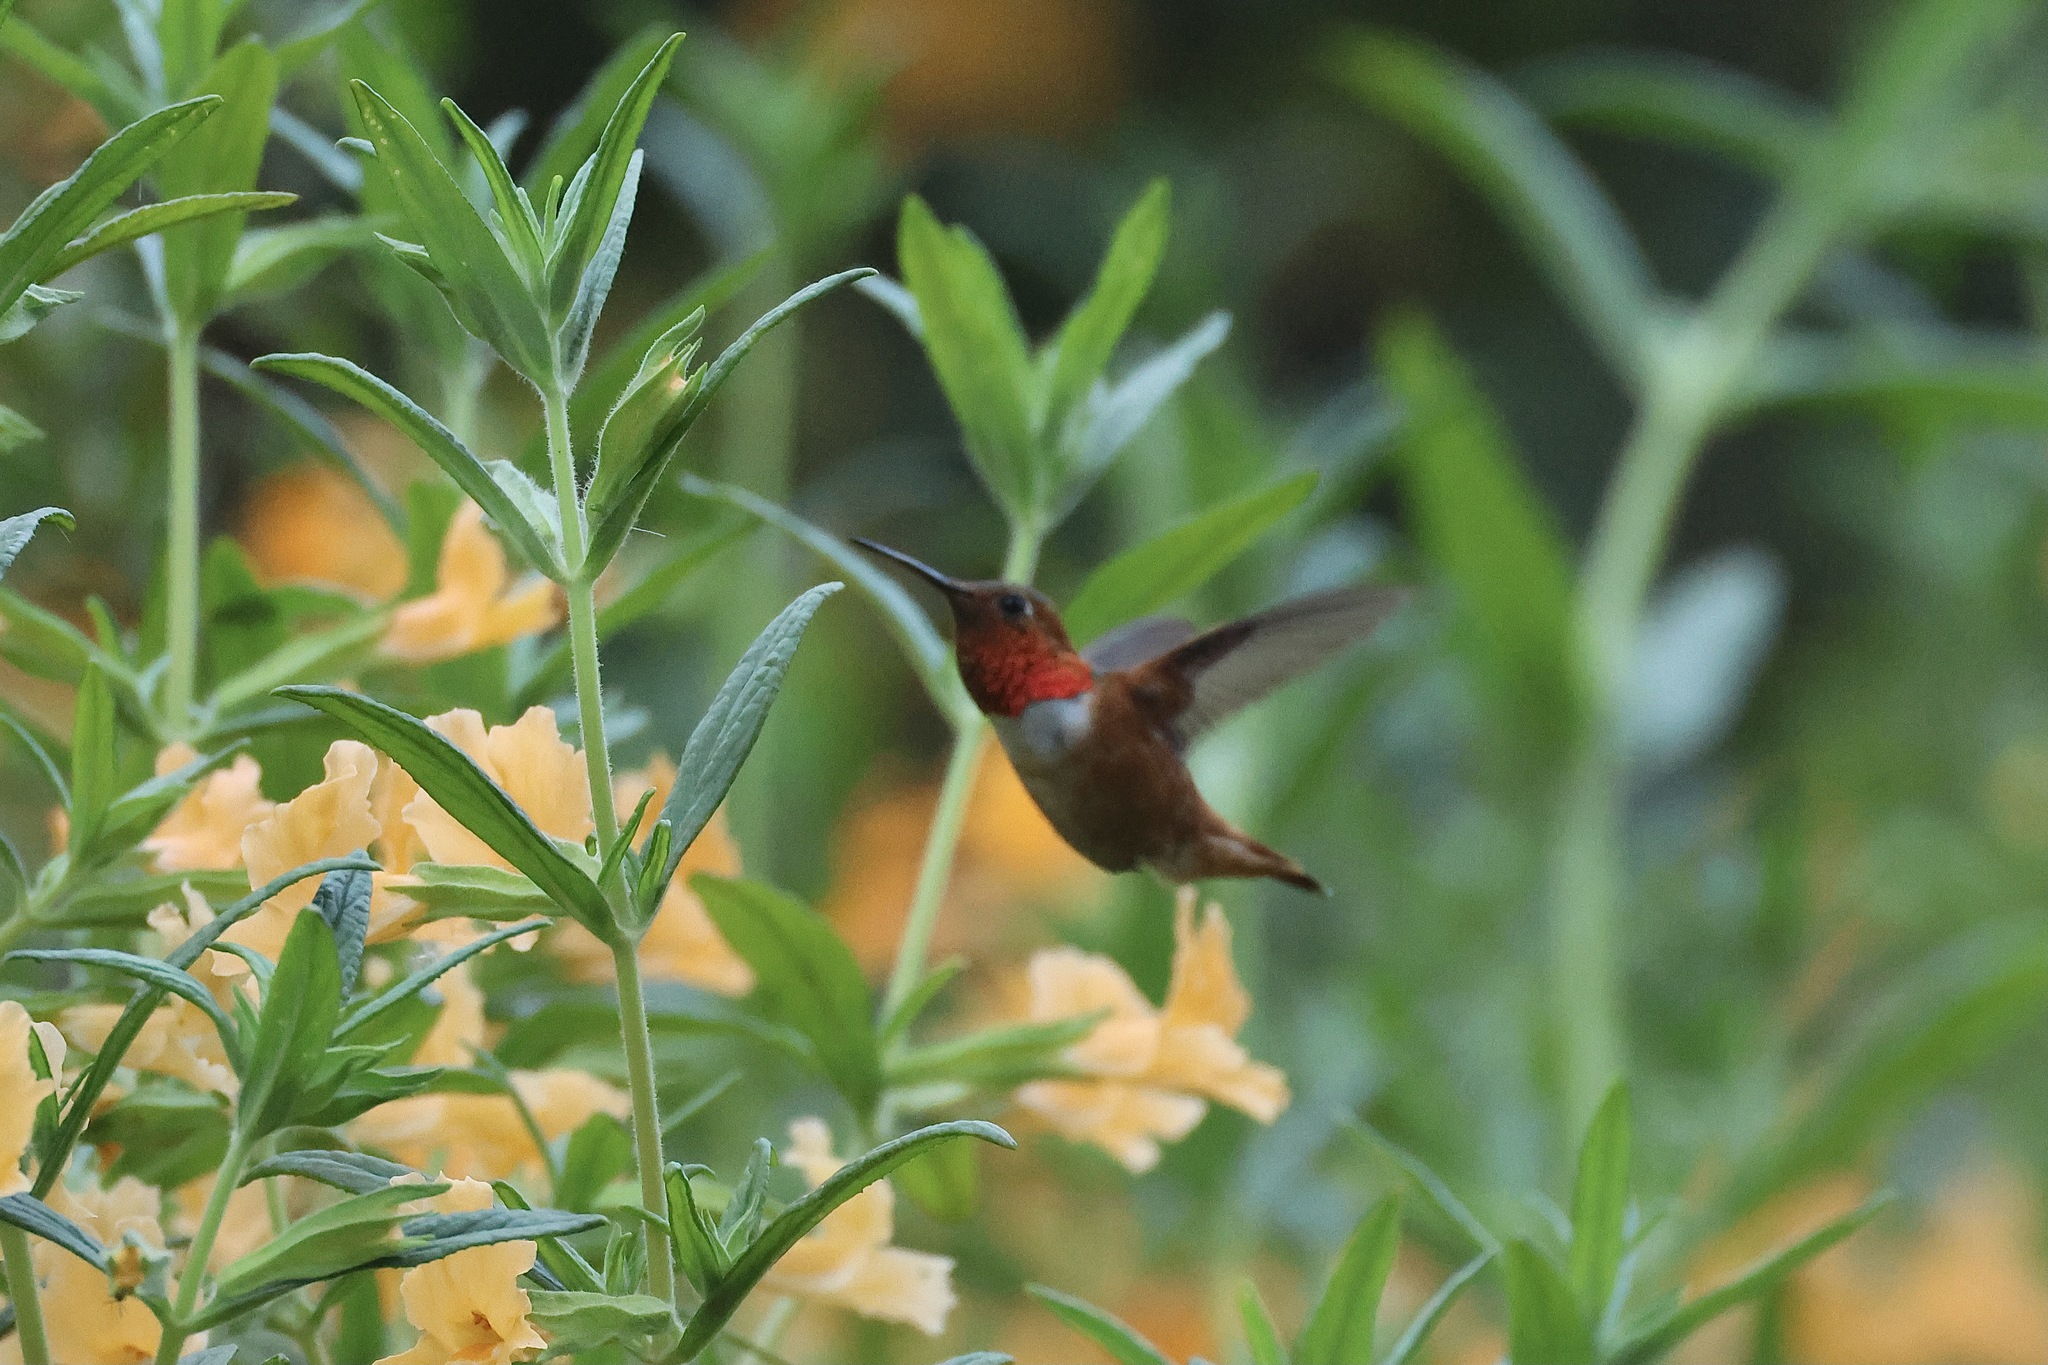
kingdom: Animalia
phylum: Chordata
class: Aves
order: Apodiformes
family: Trochilidae
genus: Selasphorus
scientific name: Selasphorus sasin
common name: Allen's hummingbird
